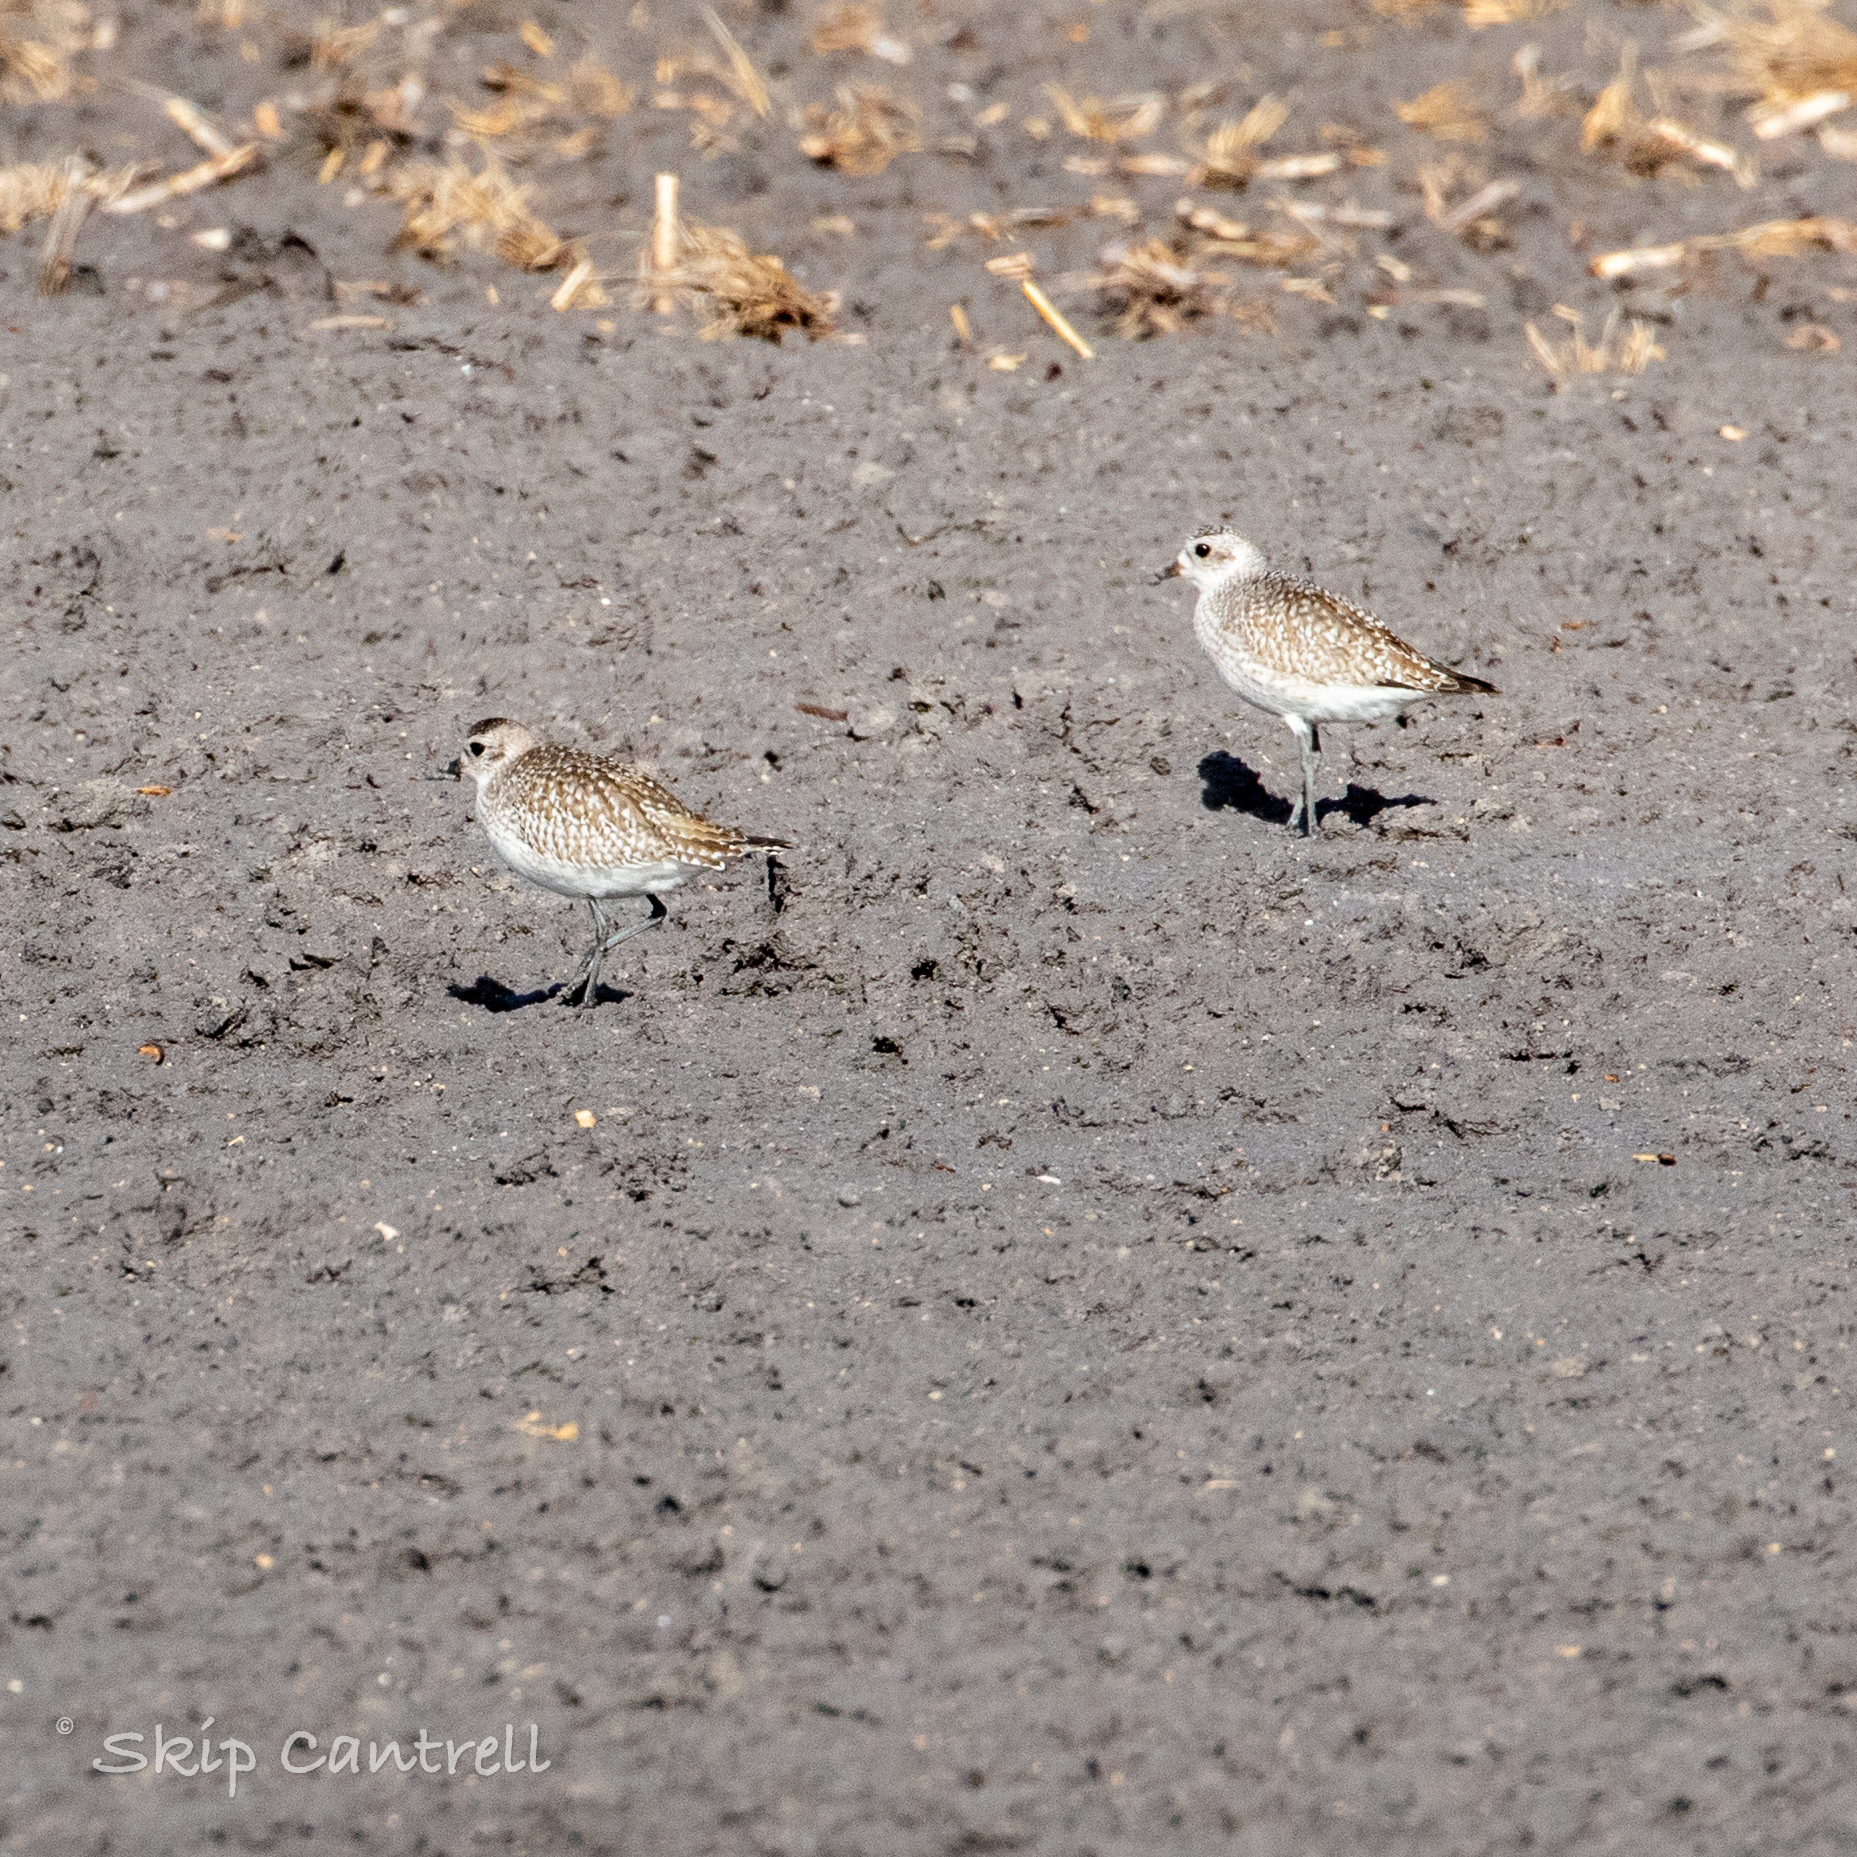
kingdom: Animalia
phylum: Chordata
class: Aves
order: Charadriiformes
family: Charadriidae
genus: Pluvialis
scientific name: Pluvialis squatarola
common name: Grey plover
